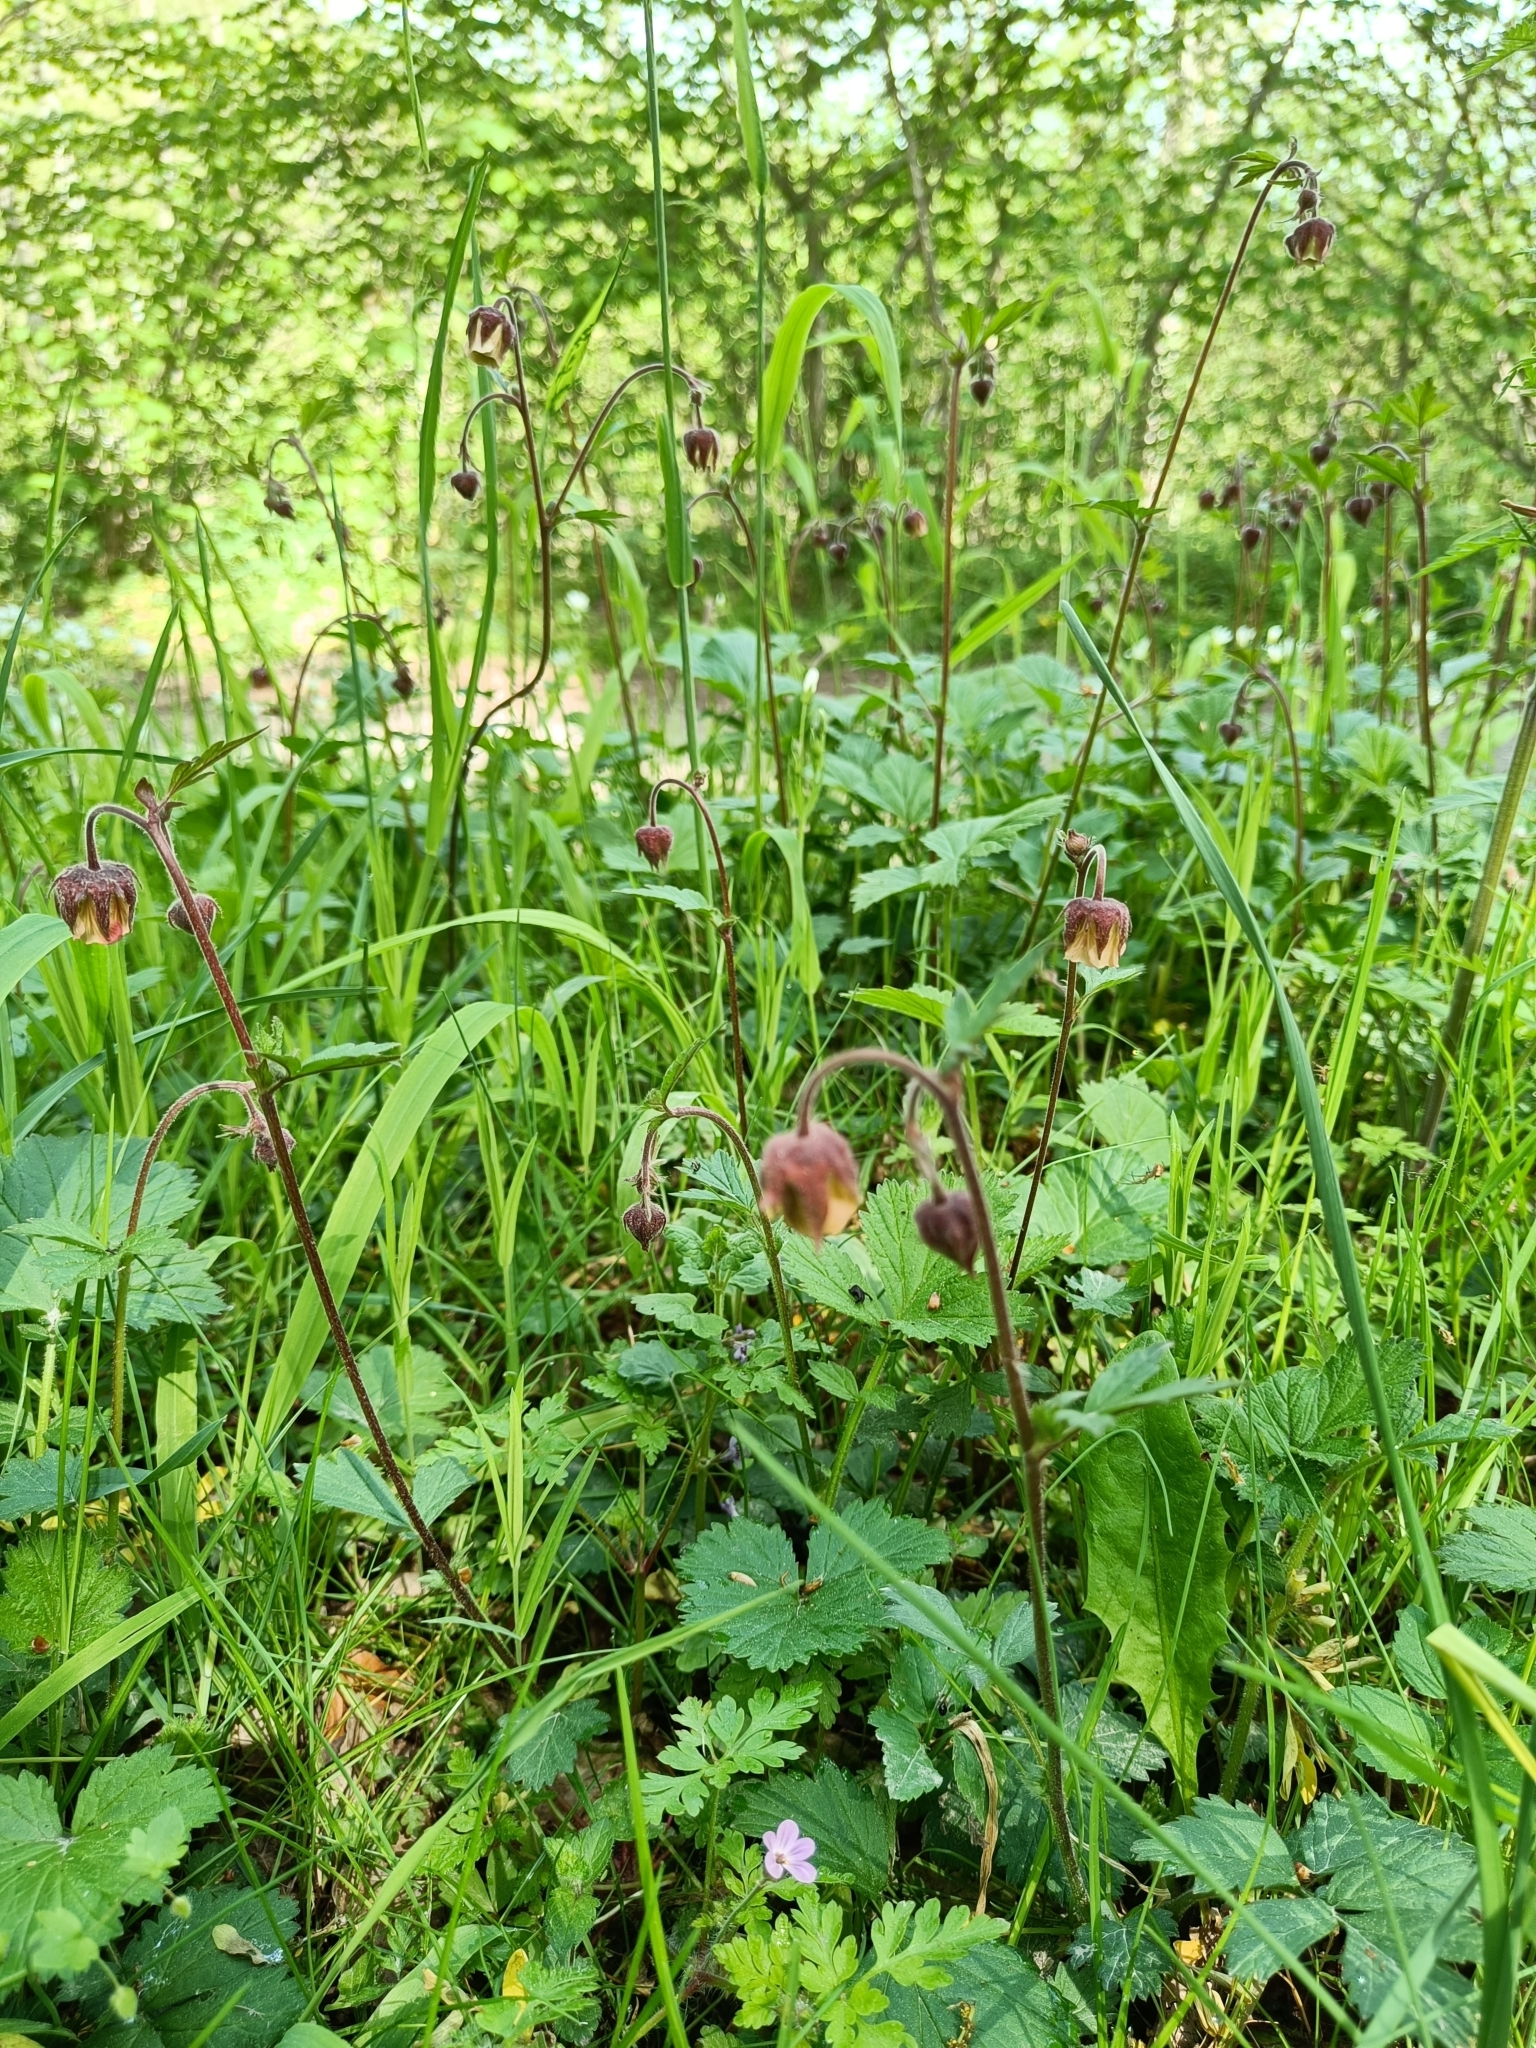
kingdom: Plantae
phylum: Tracheophyta
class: Magnoliopsida
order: Rosales
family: Rosaceae
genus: Geum
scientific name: Geum rivale
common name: Water avens
